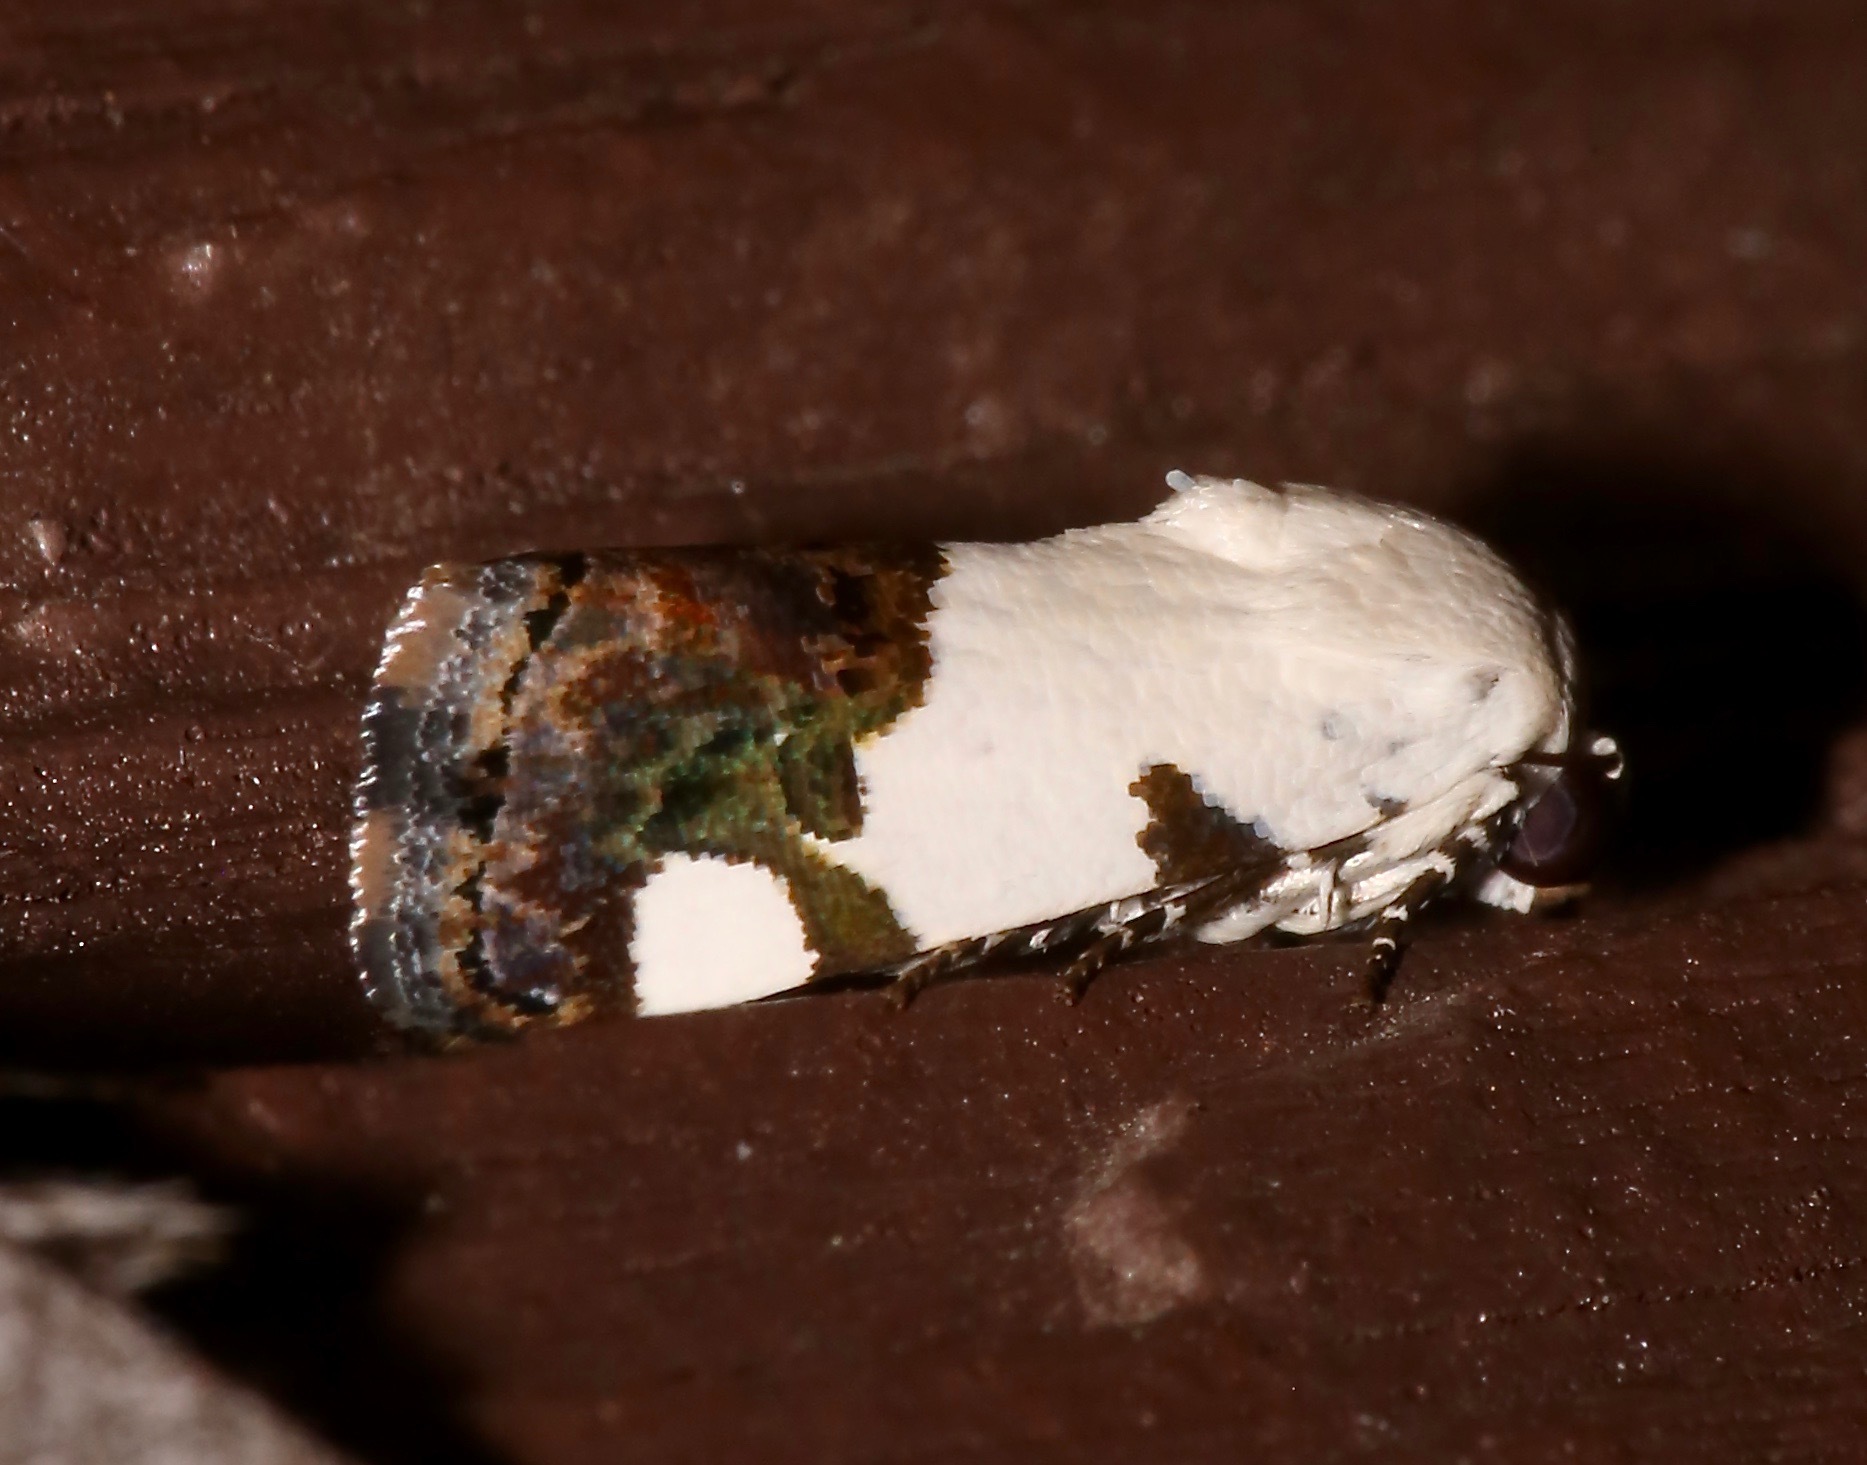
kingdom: Animalia
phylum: Arthropoda
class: Insecta
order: Lepidoptera
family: Noctuidae
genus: Acontia
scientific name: Acontia quadriplaga
